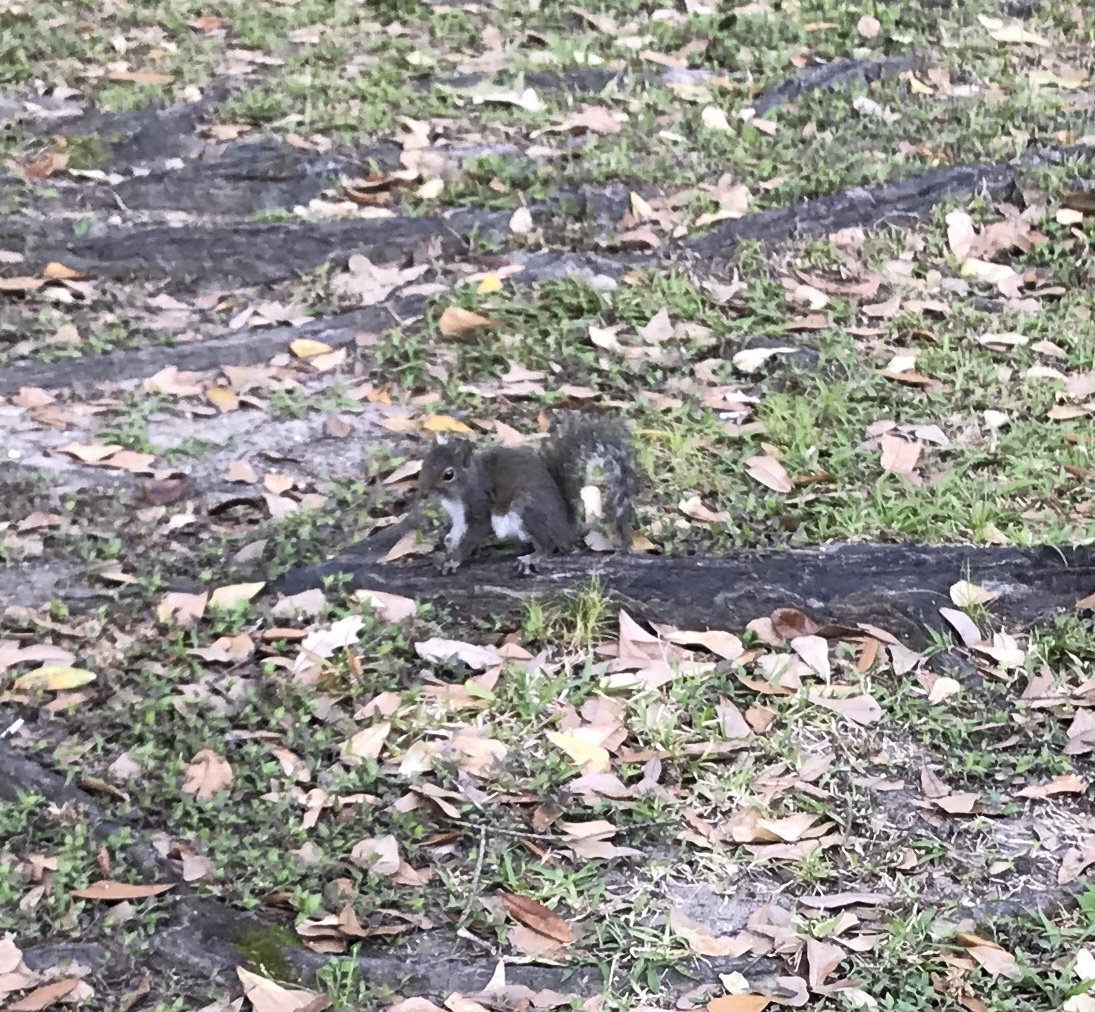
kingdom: Animalia
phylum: Chordata
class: Mammalia
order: Rodentia
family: Sciuridae
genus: Sciurus
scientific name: Sciurus carolinensis
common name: Eastern gray squirrel
